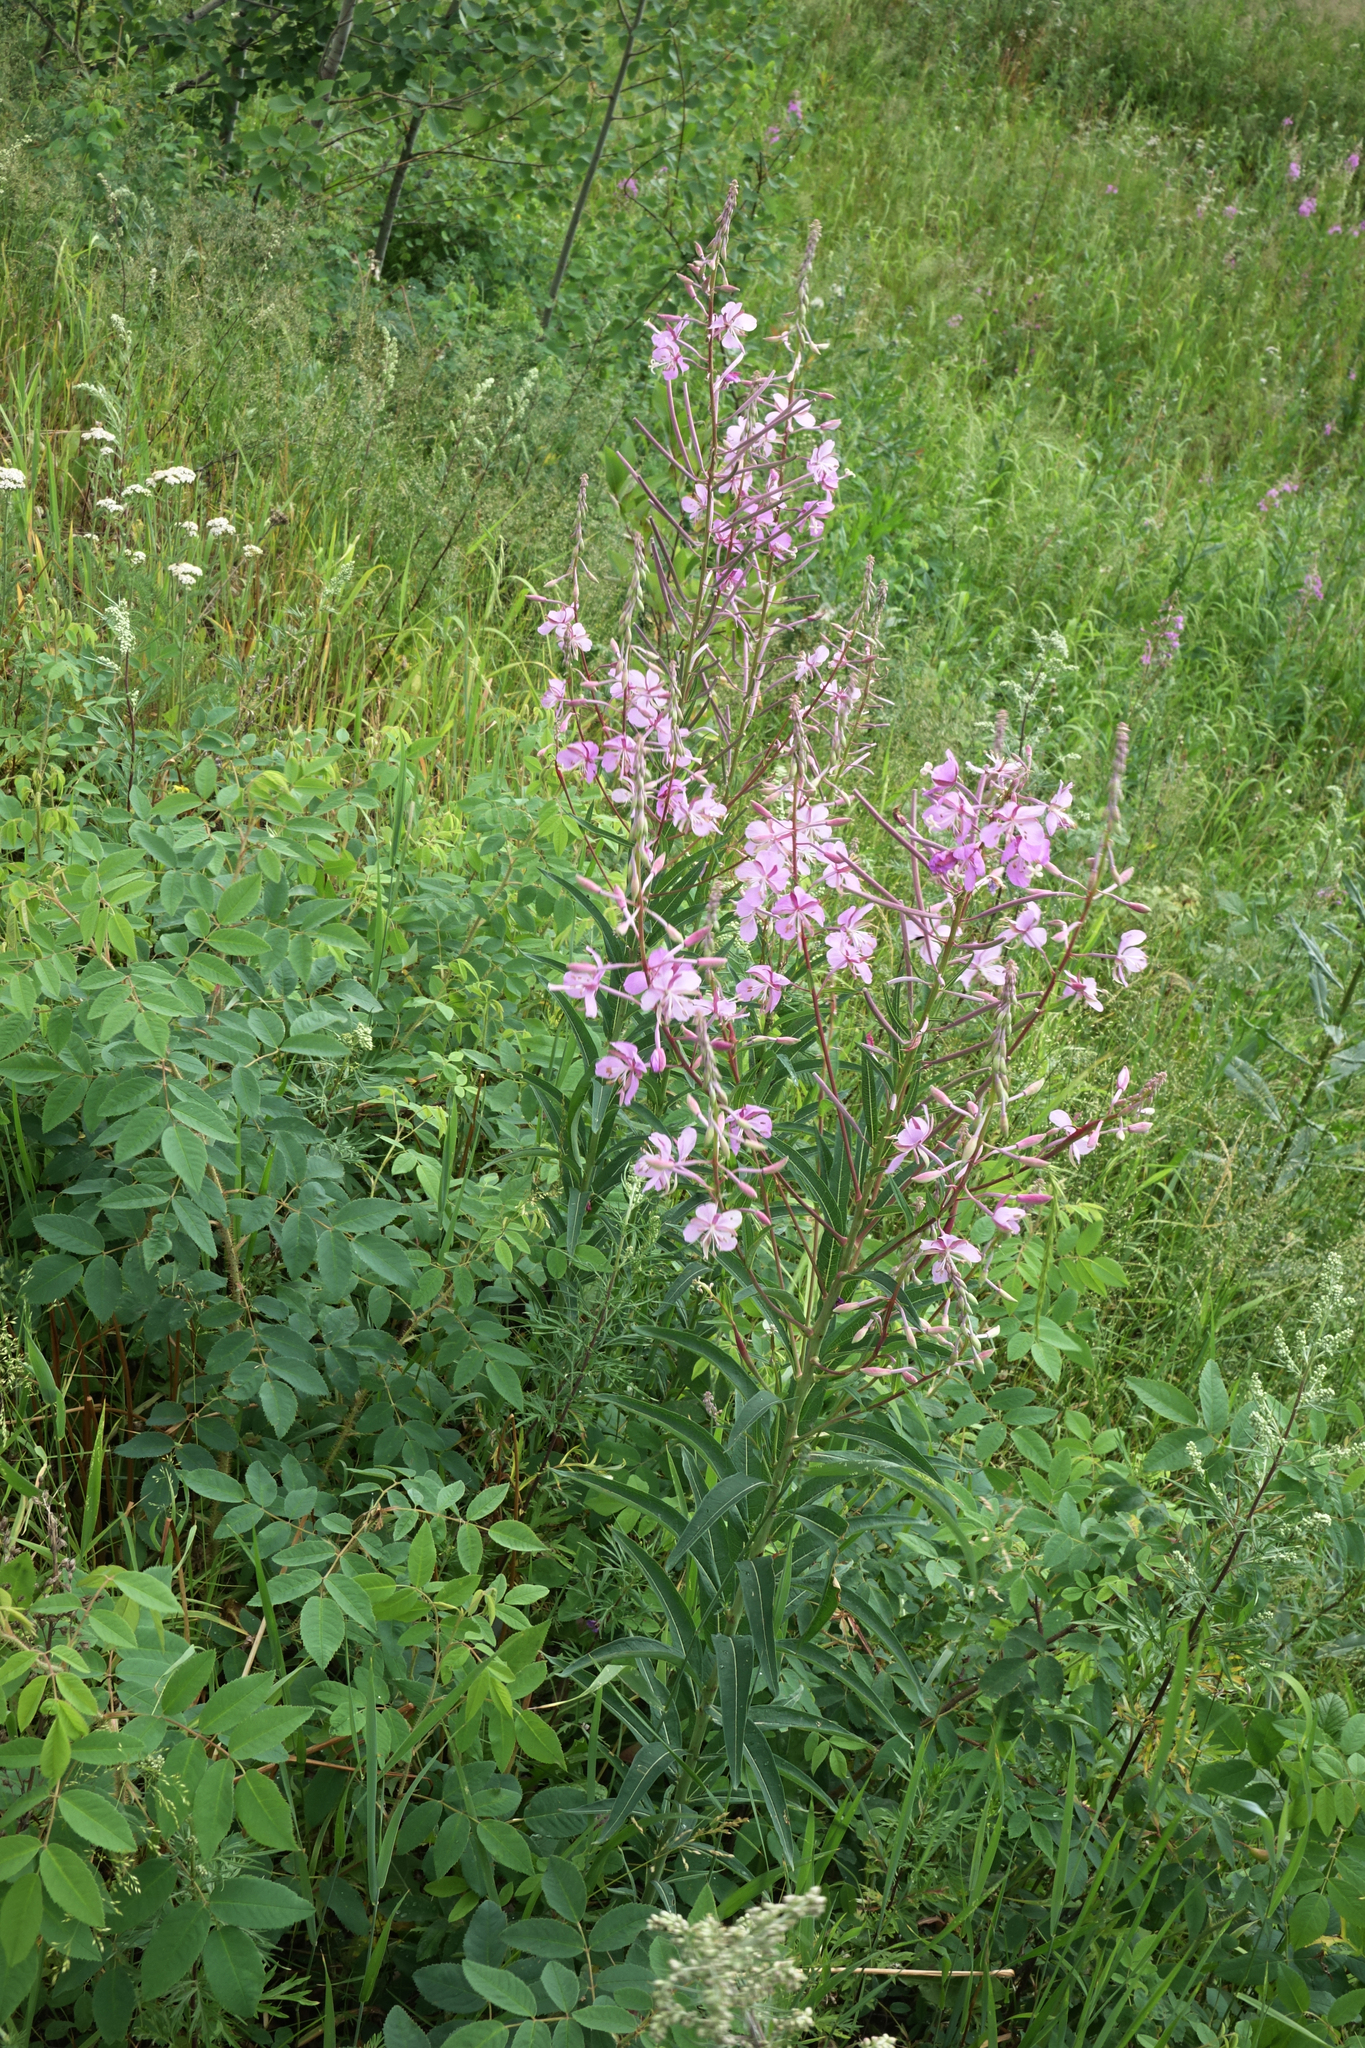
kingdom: Plantae
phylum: Tracheophyta
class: Magnoliopsida
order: Myrtales
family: Onagraceae
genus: Chamaenerion
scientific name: Chamaenerion angustifolium
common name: Fireweed
